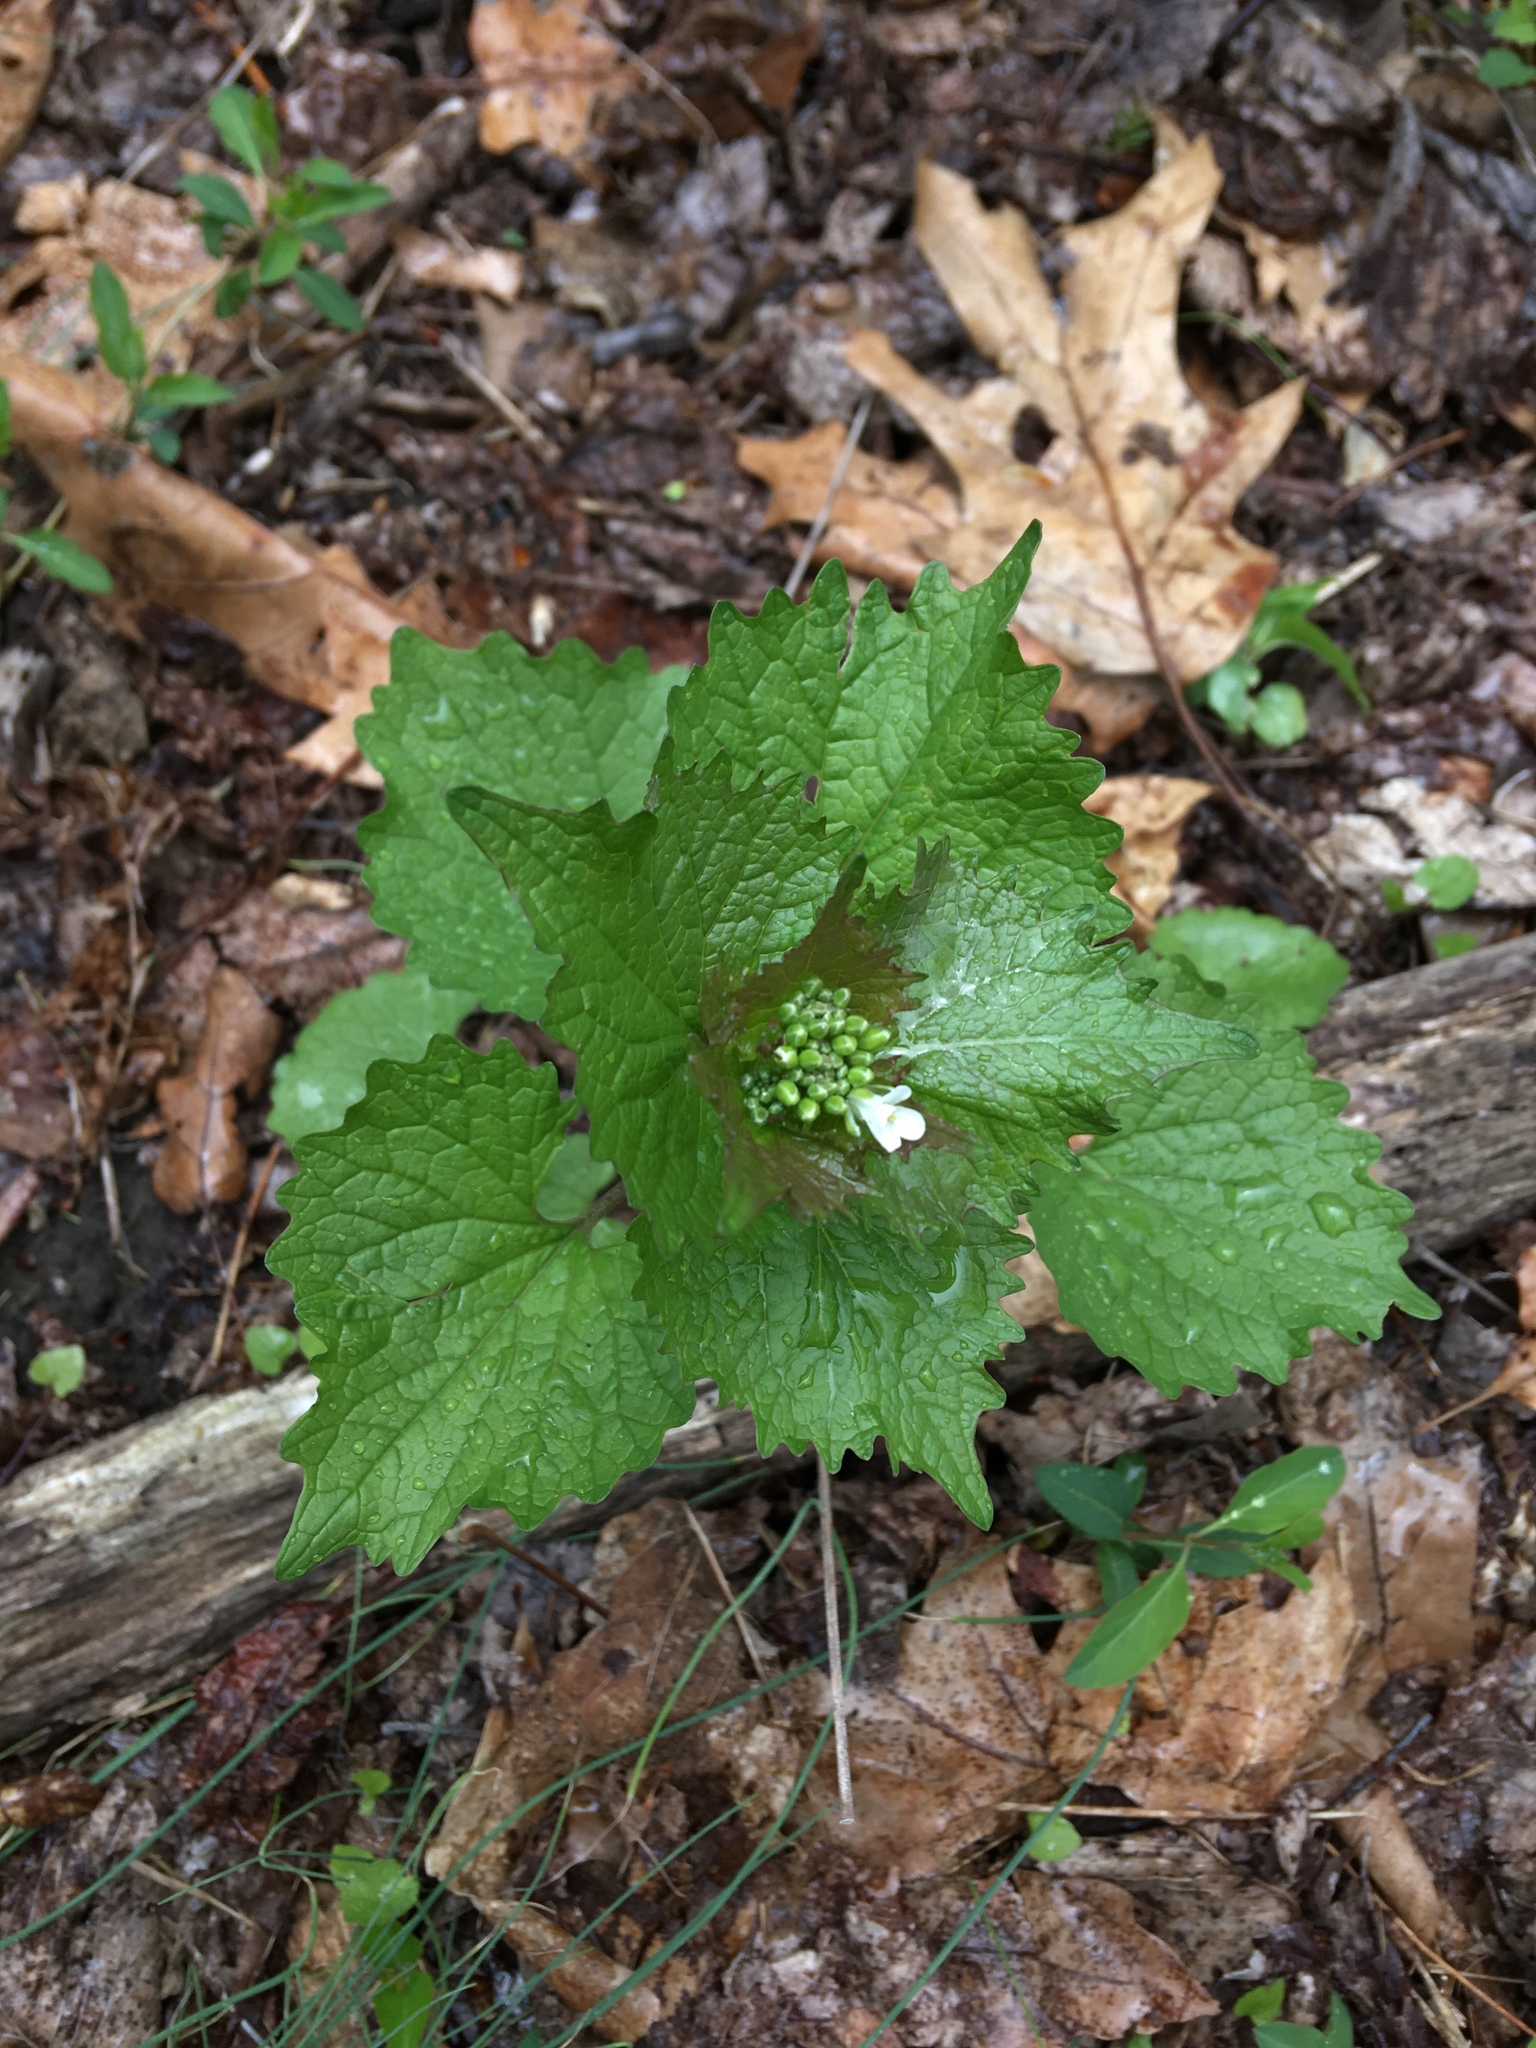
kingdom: Plantae
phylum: Tracheophyta
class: Magnoliopsida
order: Brassicales
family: Brassicaceae
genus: Alliaria
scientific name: Alliaria petiolata
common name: Garlic mustard
